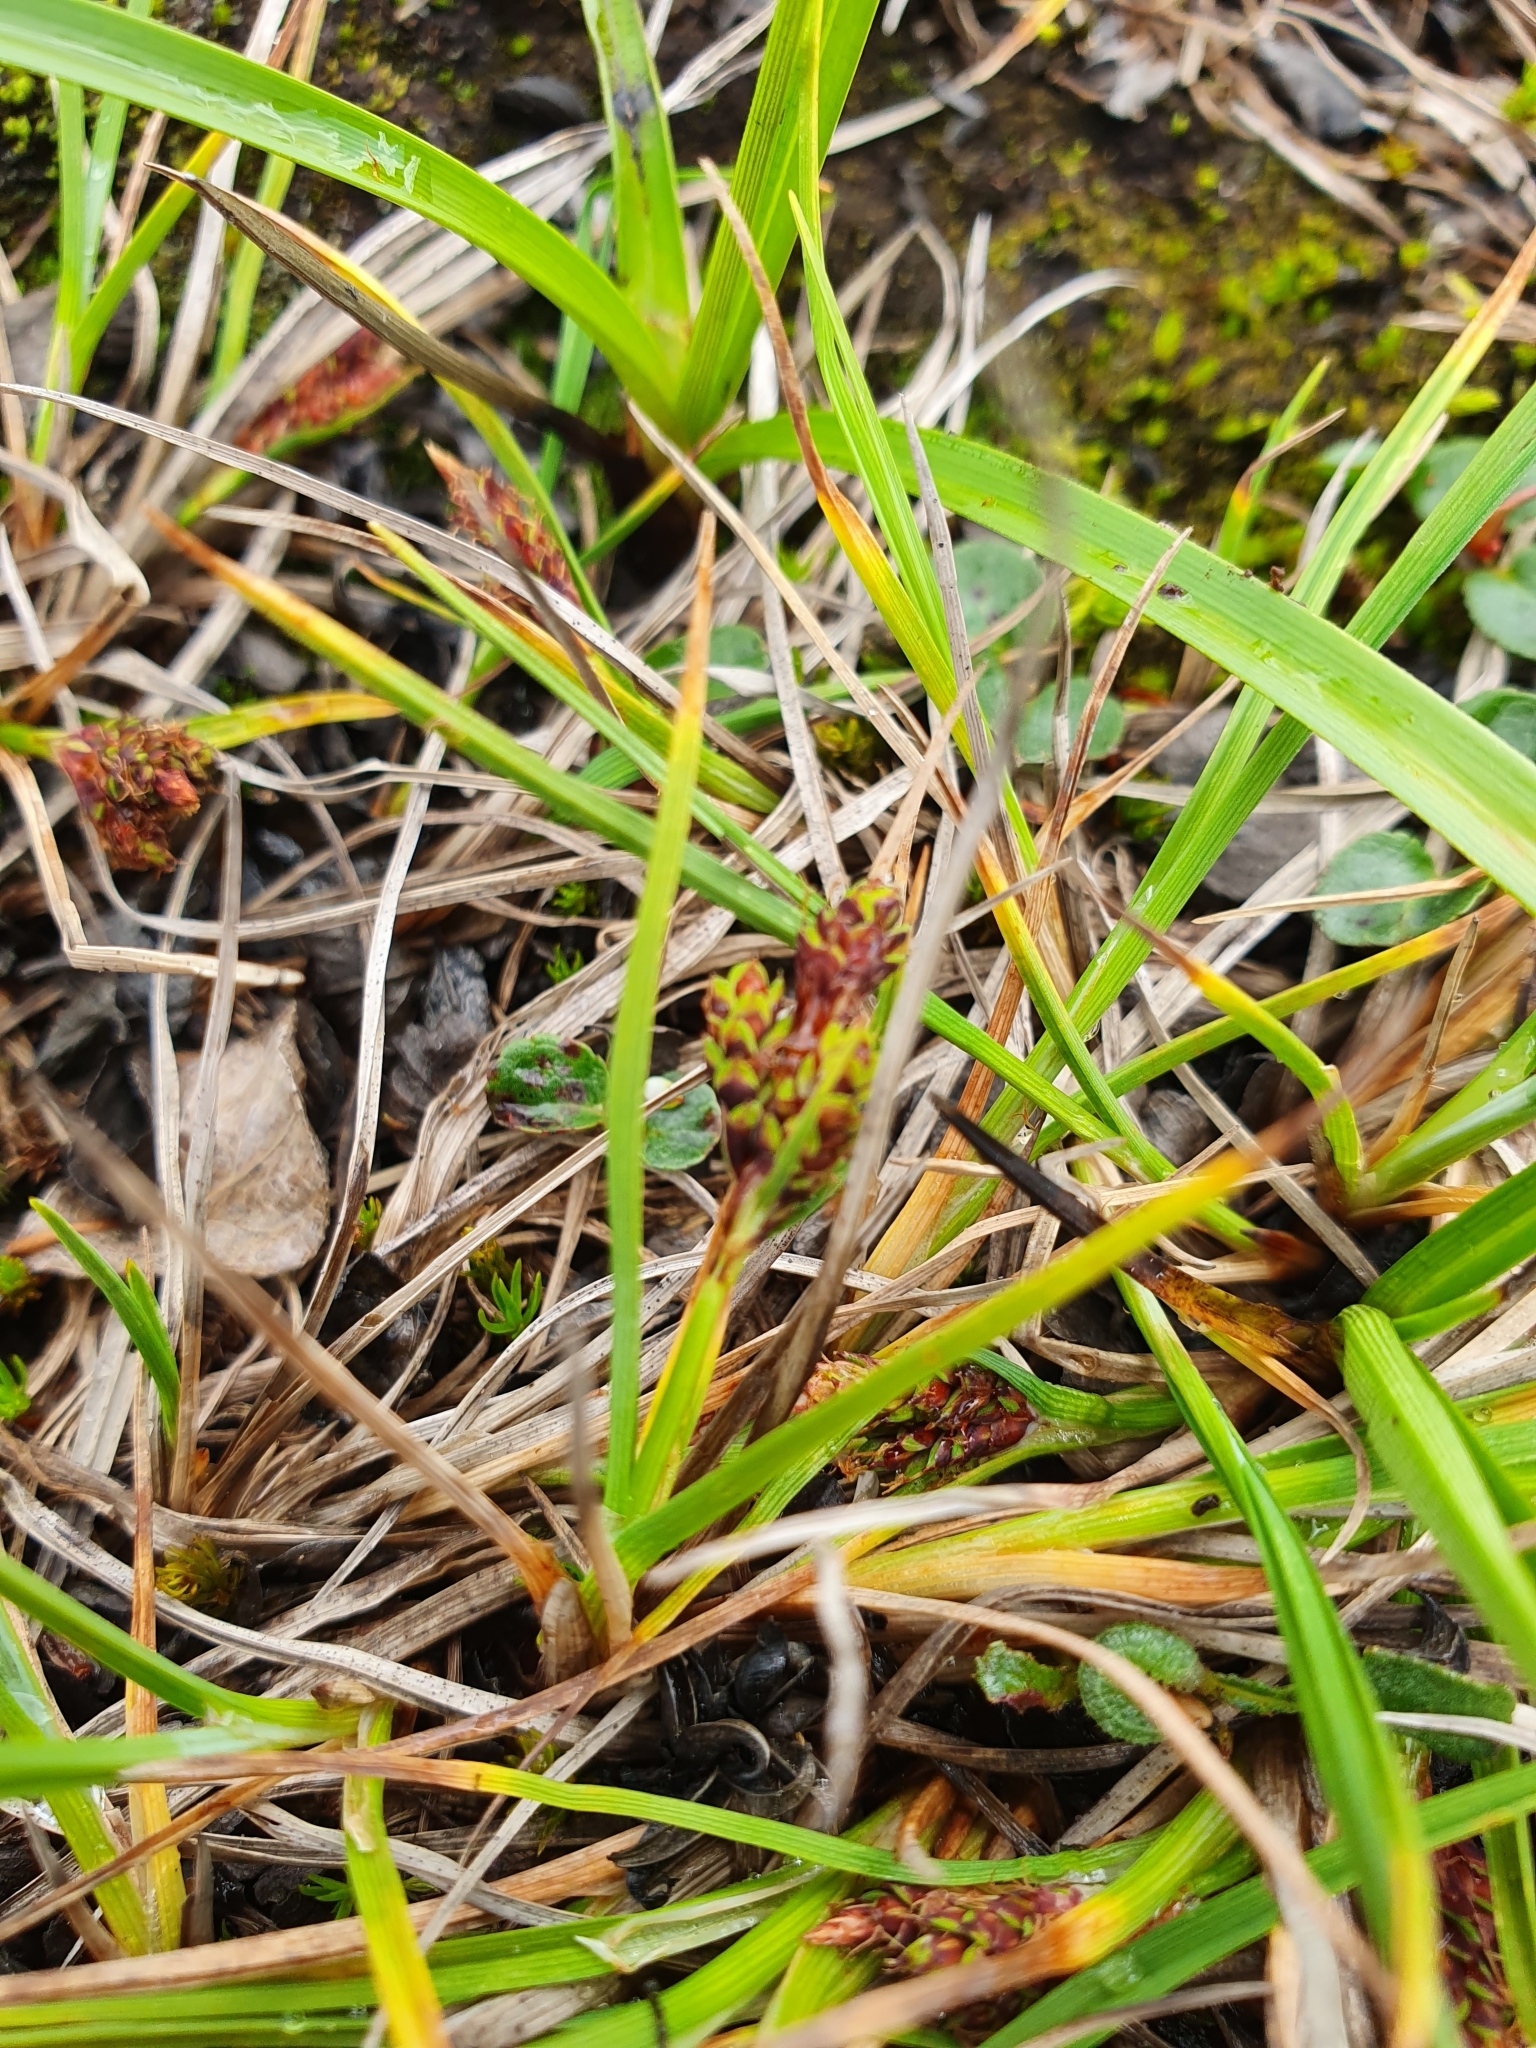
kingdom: Plantae
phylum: Tracheophyta
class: Liliopsida
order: Poales
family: Cyperaceae
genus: Carex
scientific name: Carex rufina
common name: Reddish sedge
